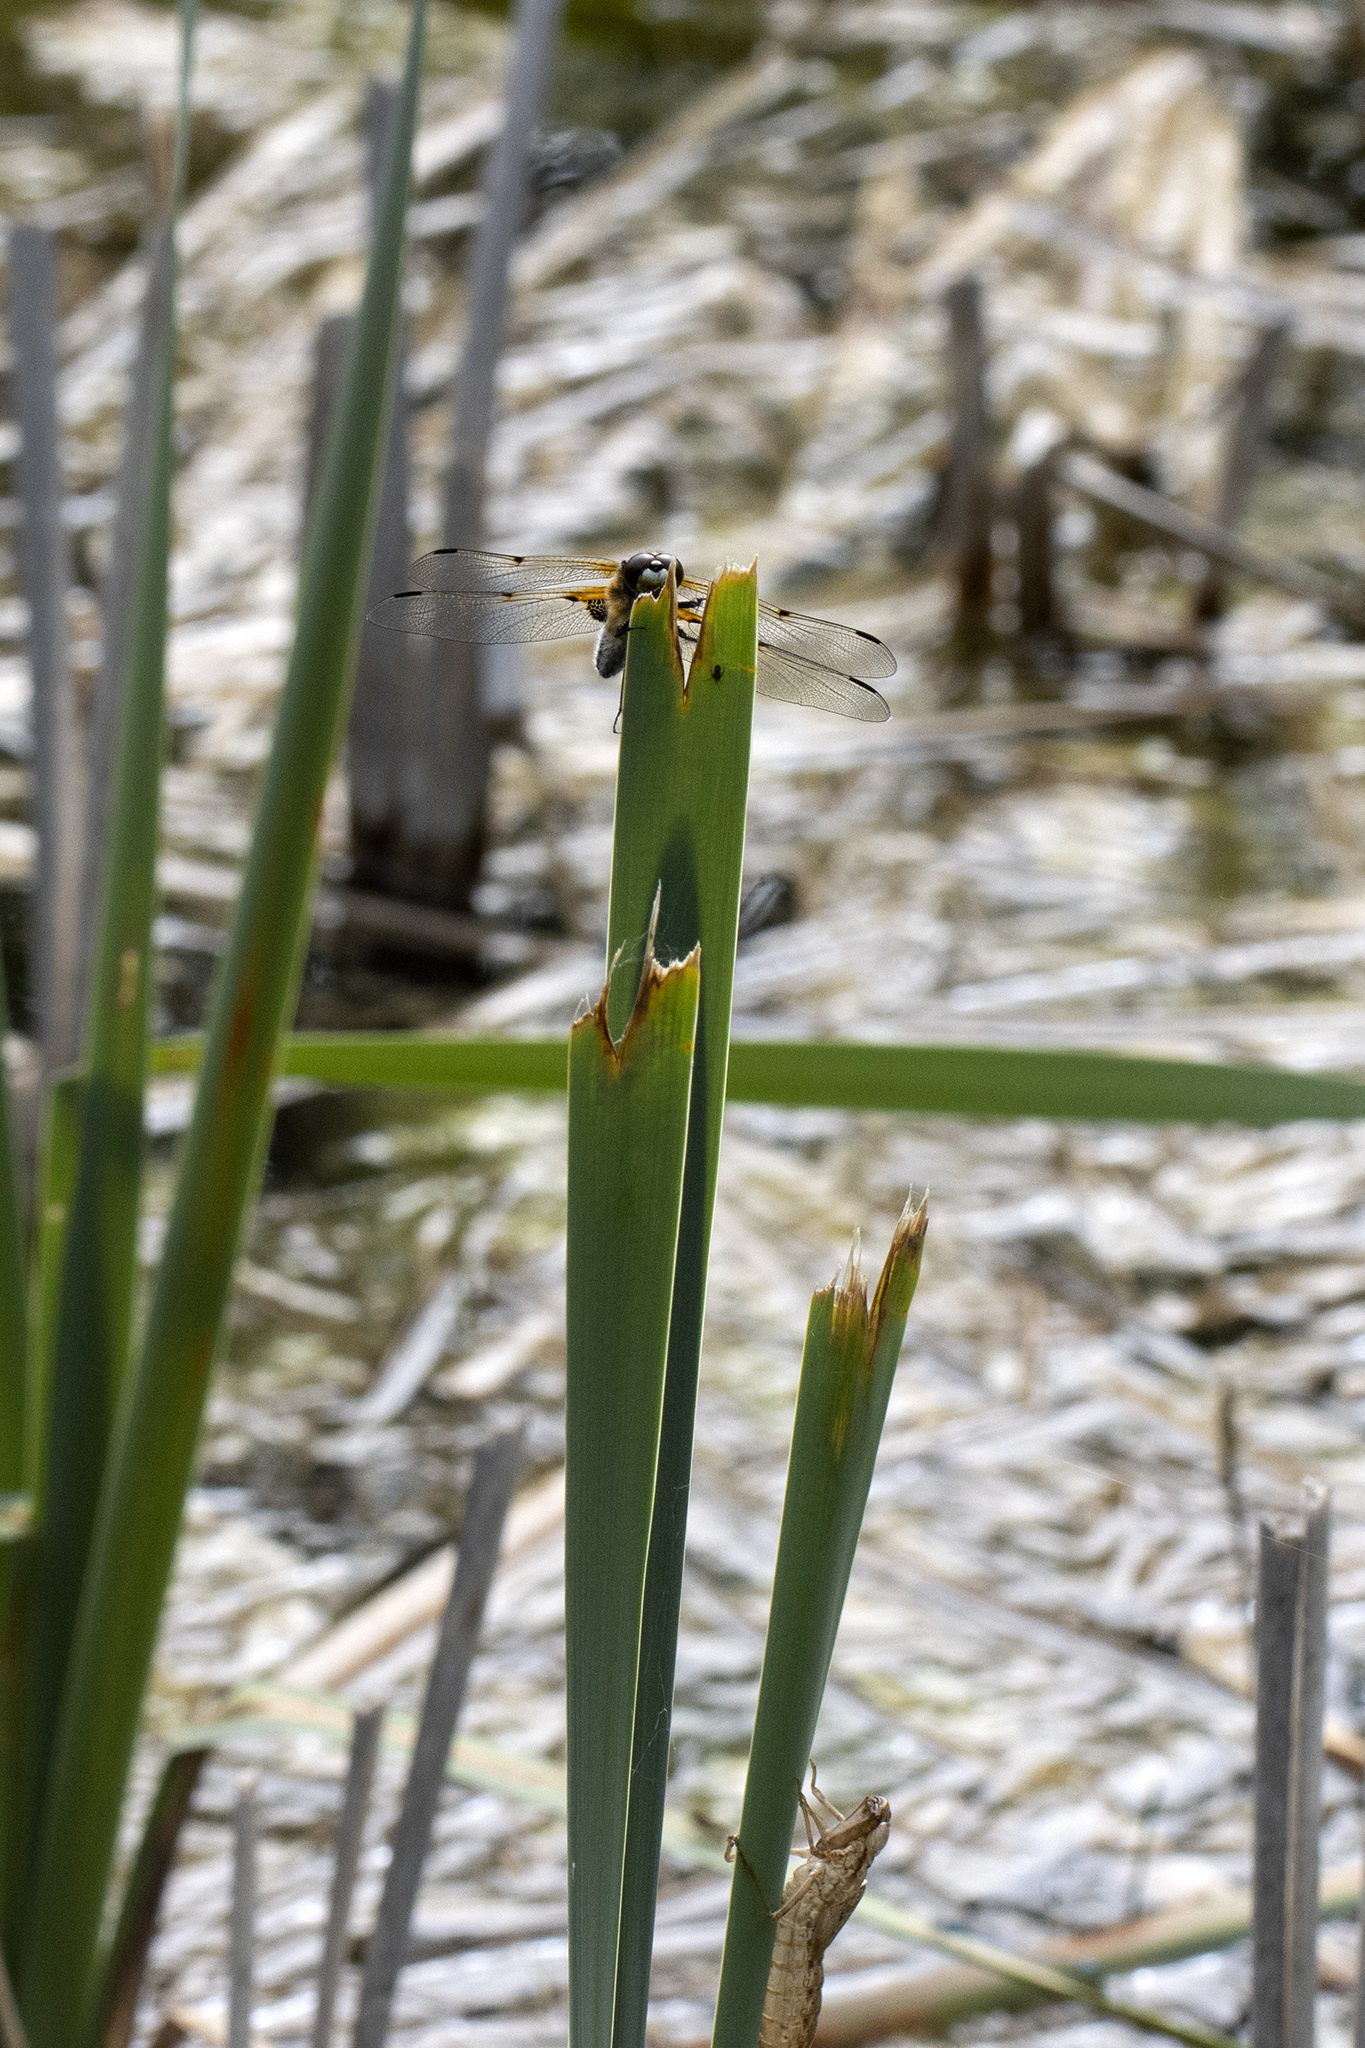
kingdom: Animalia
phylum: Arthropoda
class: Insecta
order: Odonata
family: Libellulidae
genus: Libellula
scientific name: Libellula quadrimaculata
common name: Four-spotted chaser
